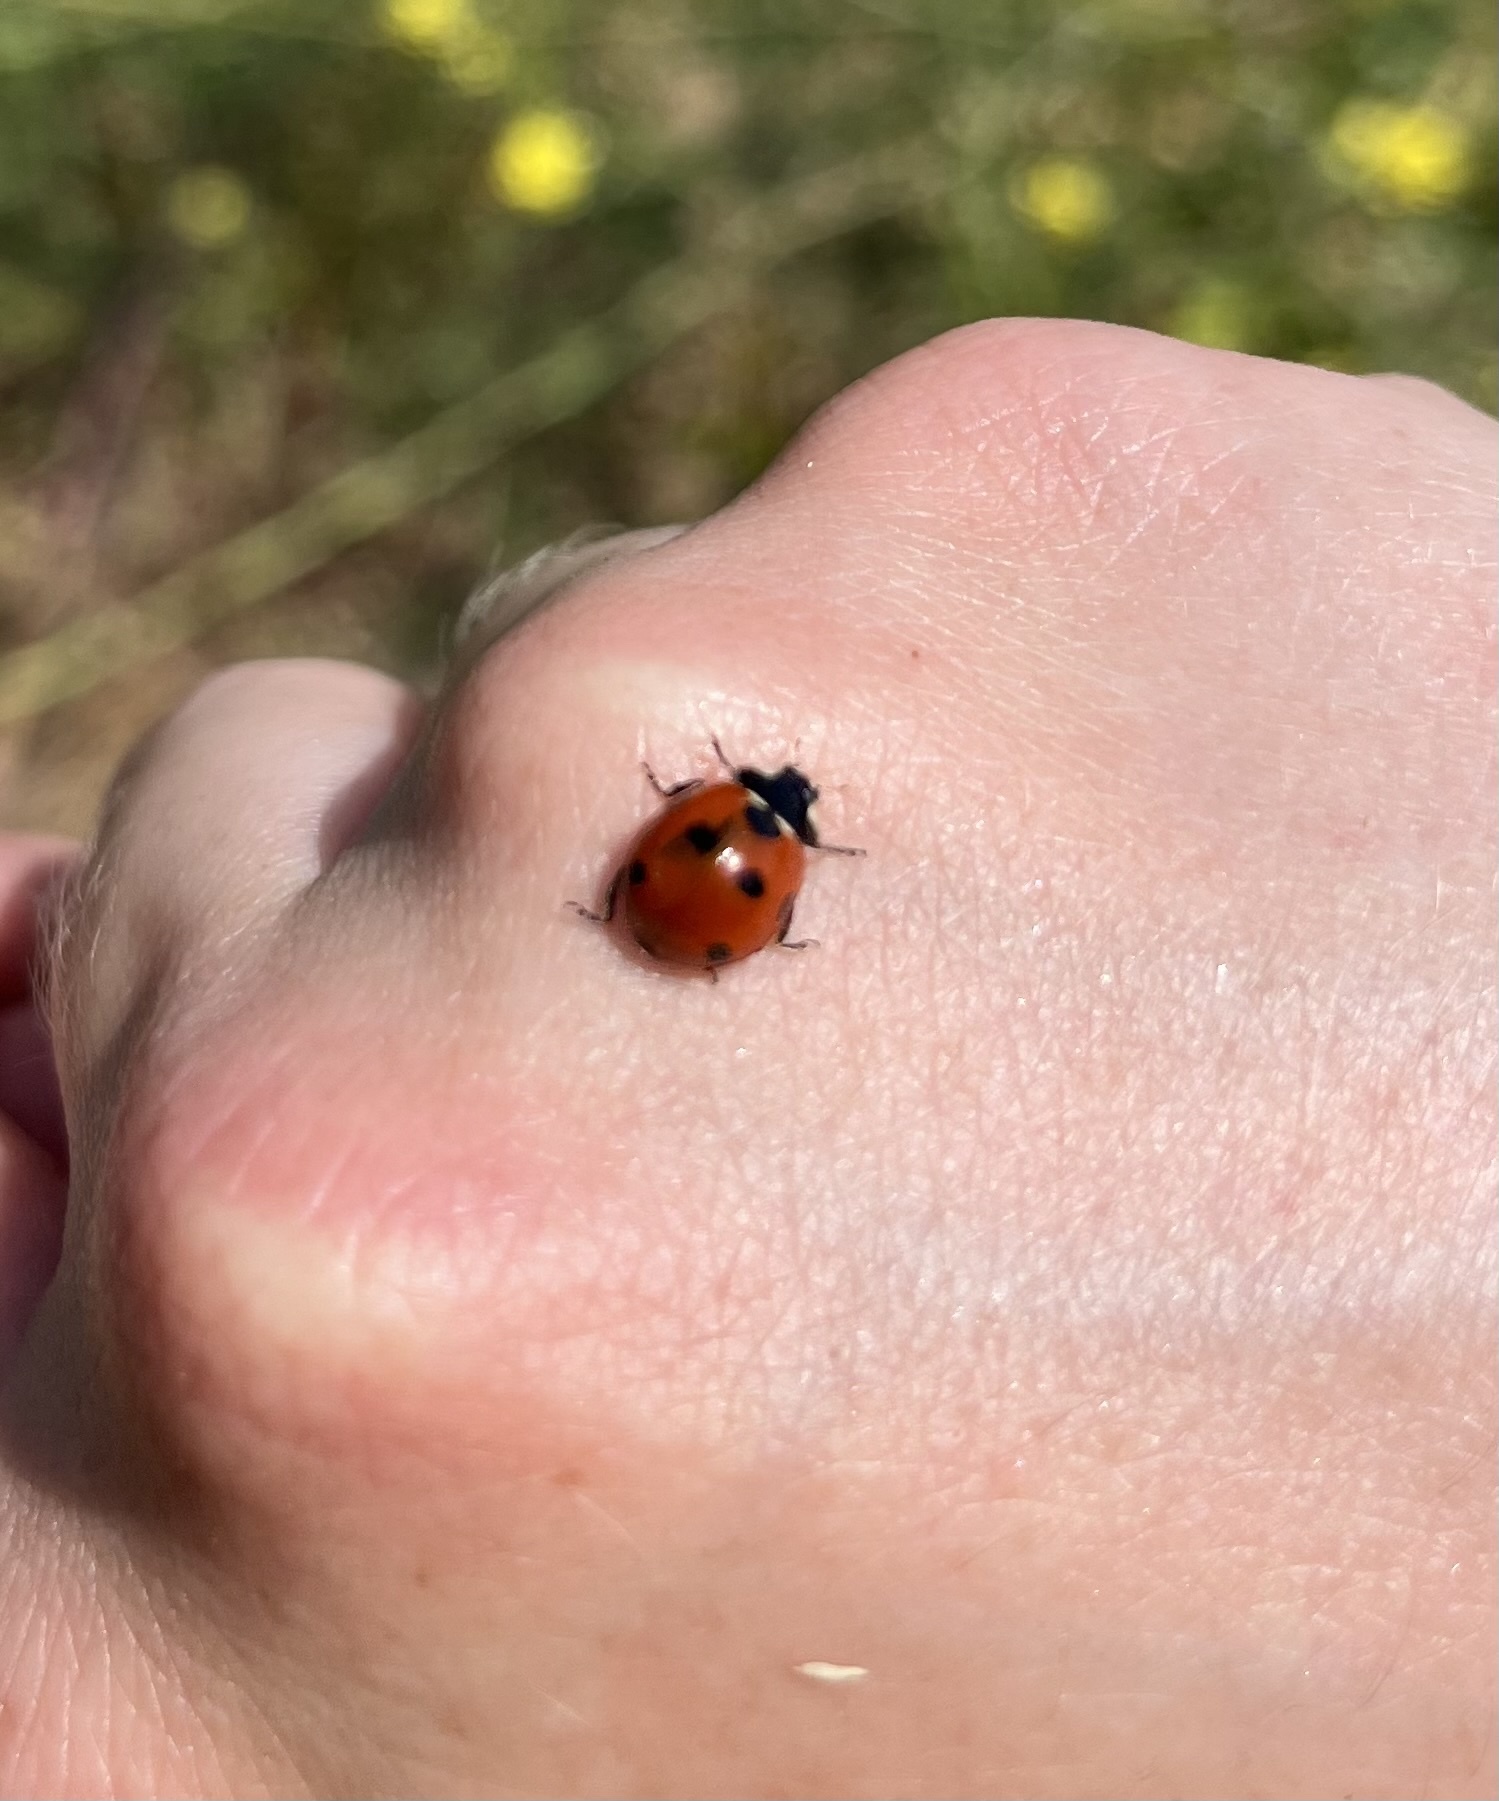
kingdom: Animalia
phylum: Arthropoda
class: Insecta
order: Coleoptera
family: Coccinellidae
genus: Coccinella
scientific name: Coccinella septempunctata
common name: Sevenspotted lady beetle
